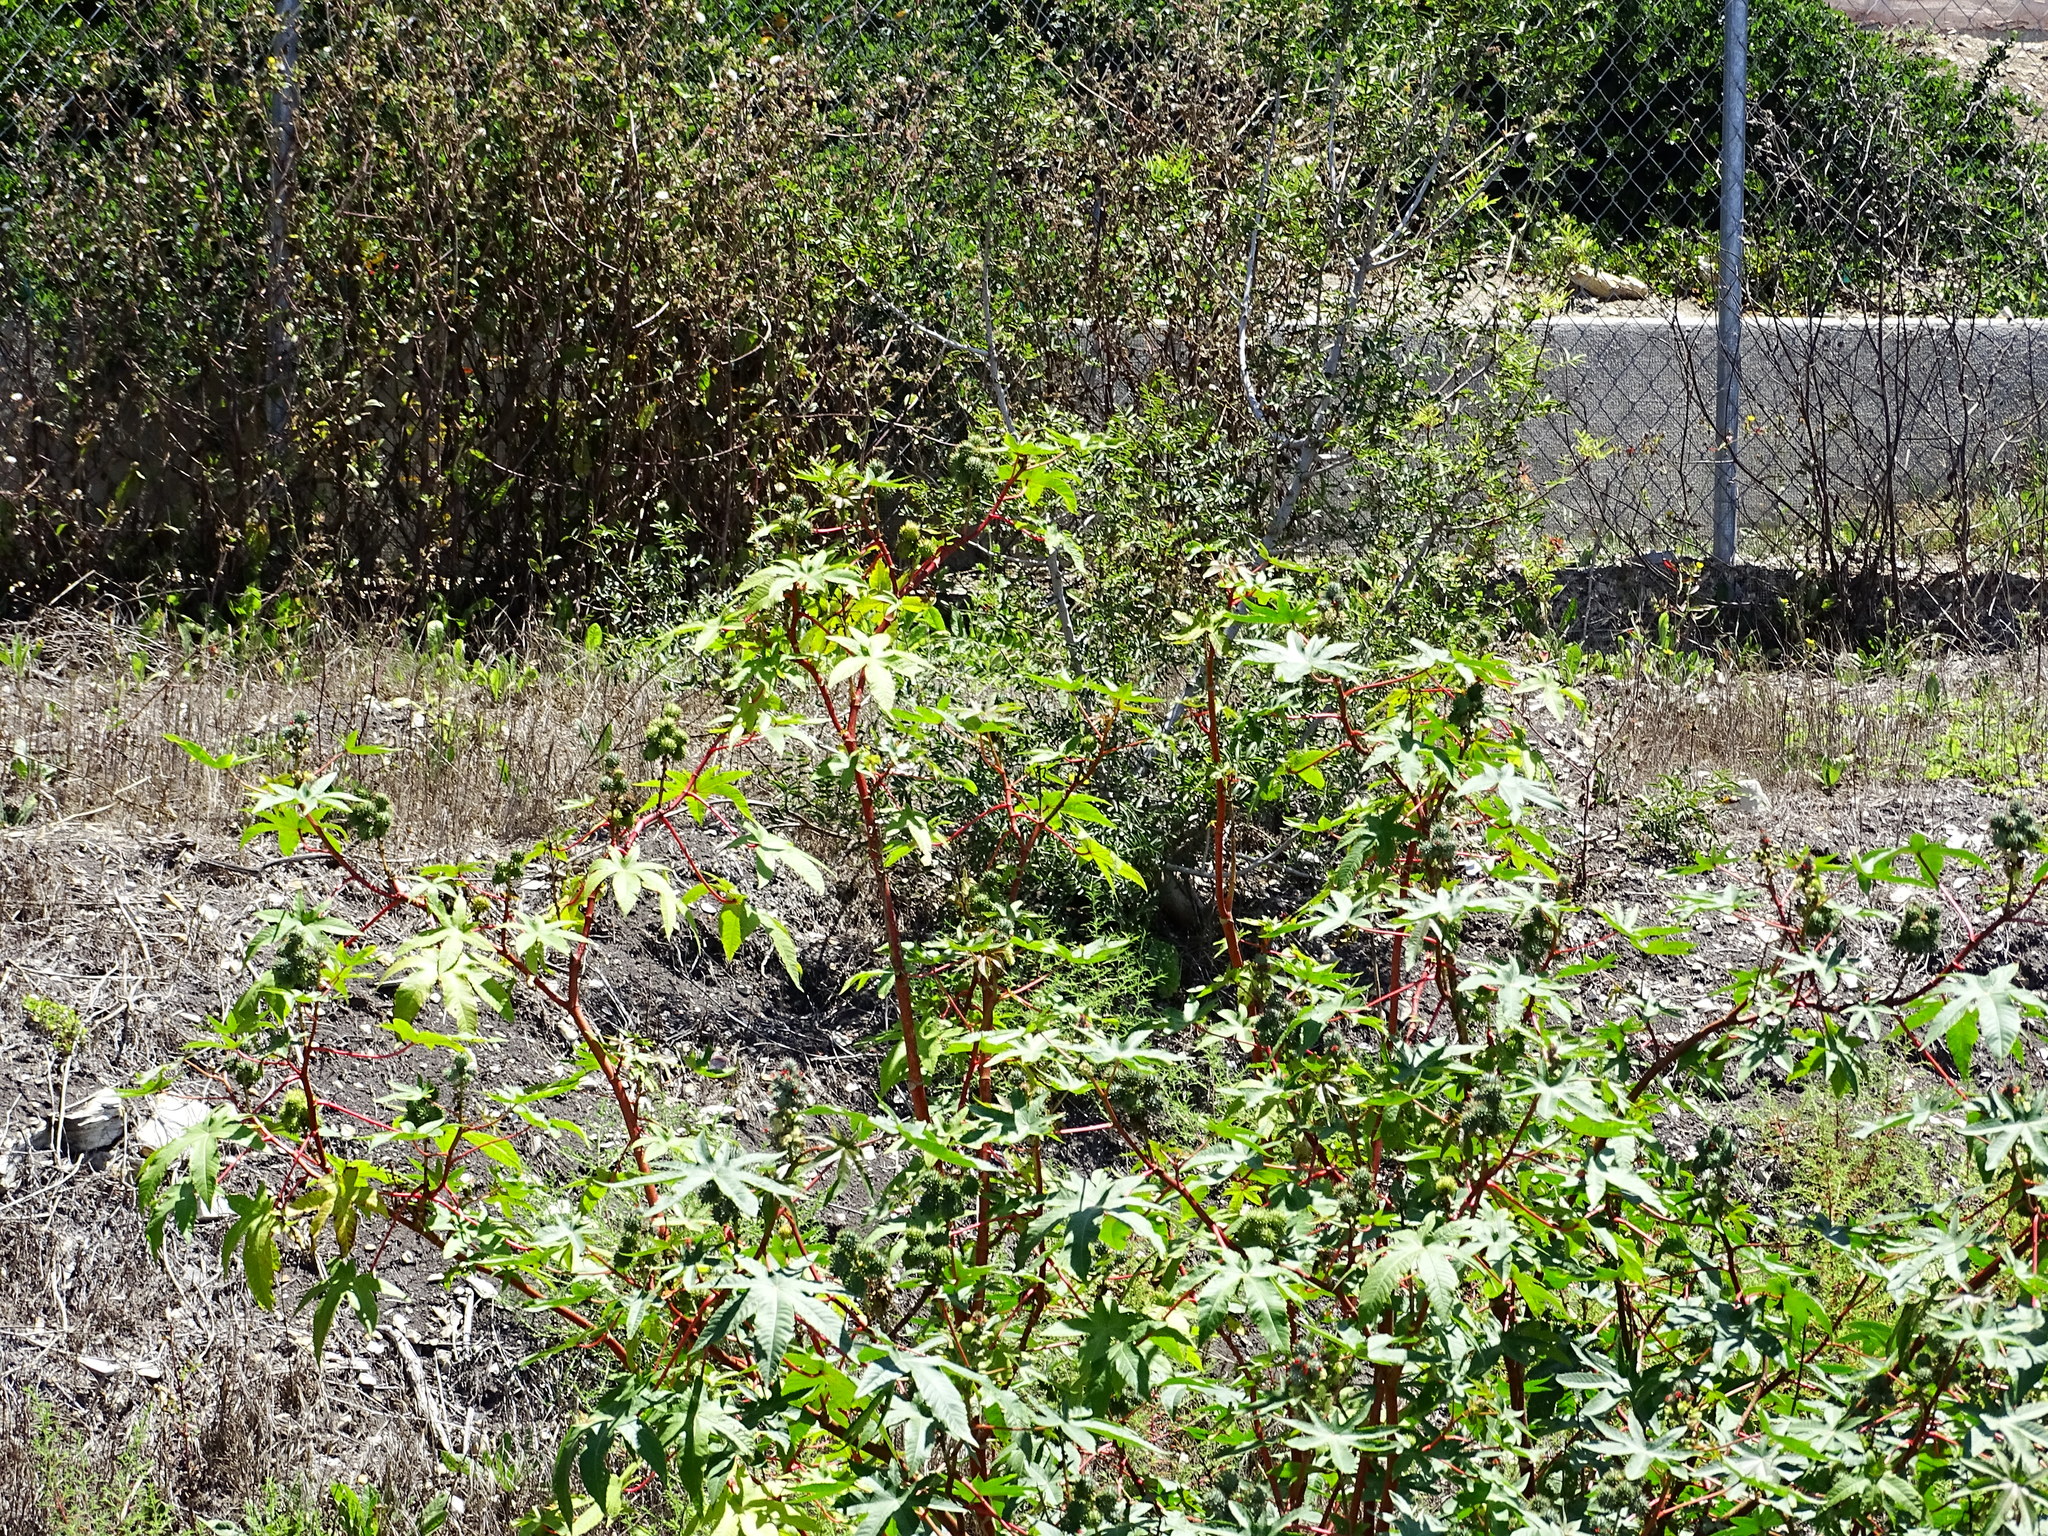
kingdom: Plantae
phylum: Tracheophyta
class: Magnoliopsida
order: Malpighiales
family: Euphorbiaceae
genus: Ricinus
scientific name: Ricinus communis
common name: Castor-oil-plant
